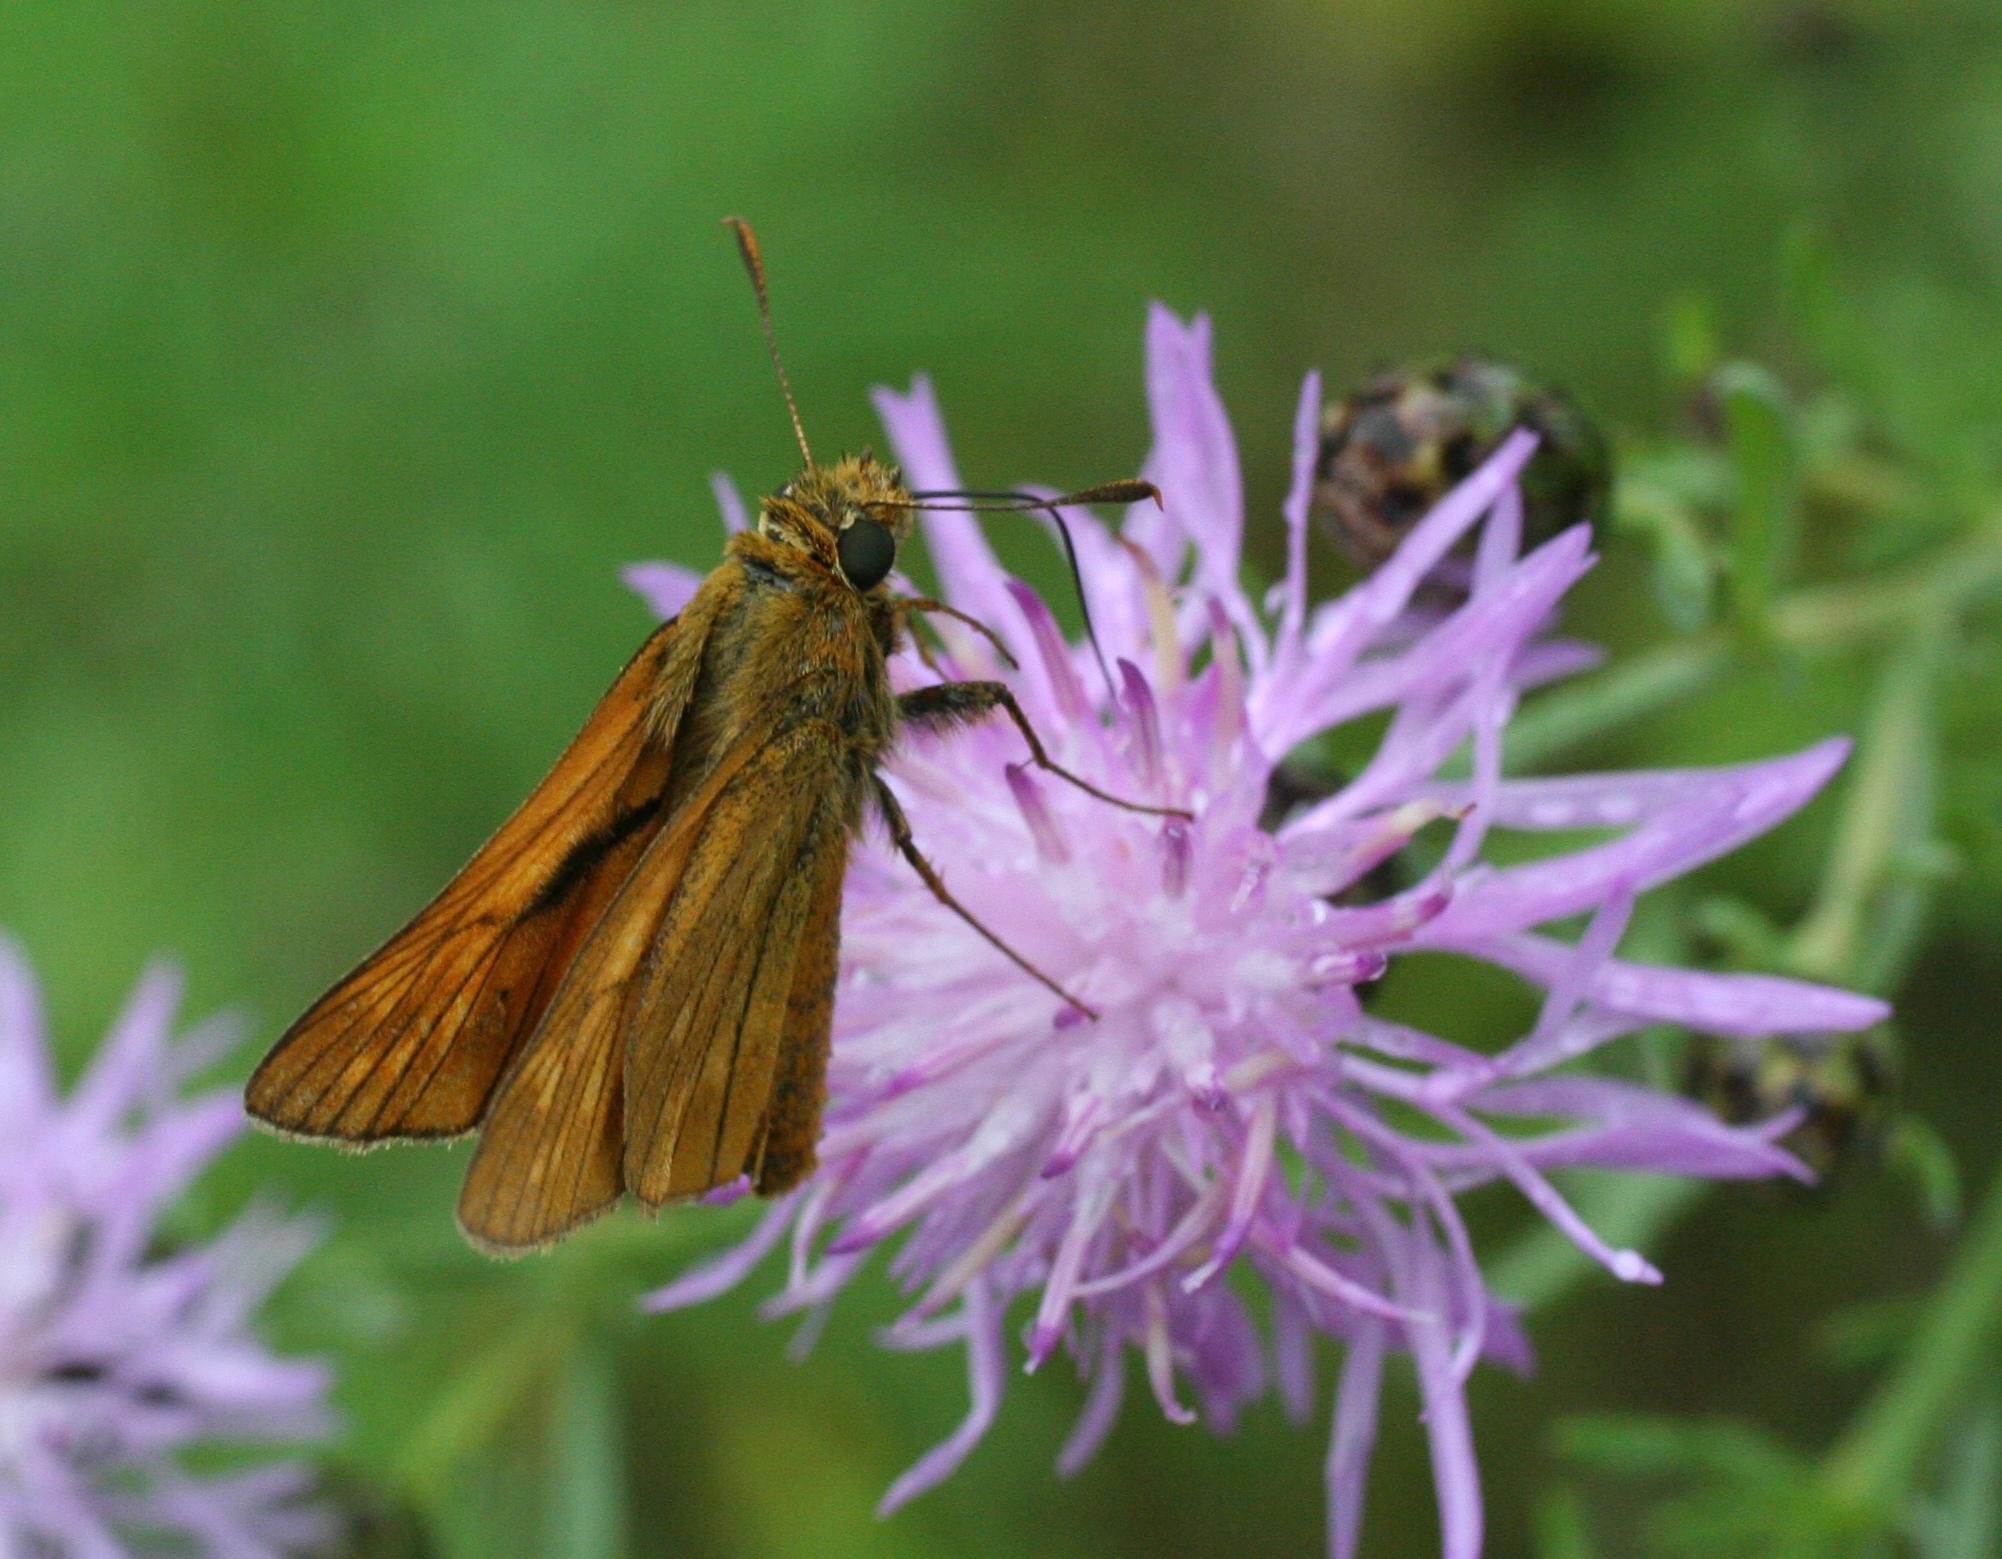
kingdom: Plantae
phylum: Tracheophyta
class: Magnoliopsida
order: Asterales
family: Asteraceae
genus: Centaurea
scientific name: Centaurea pseudomaculosa
